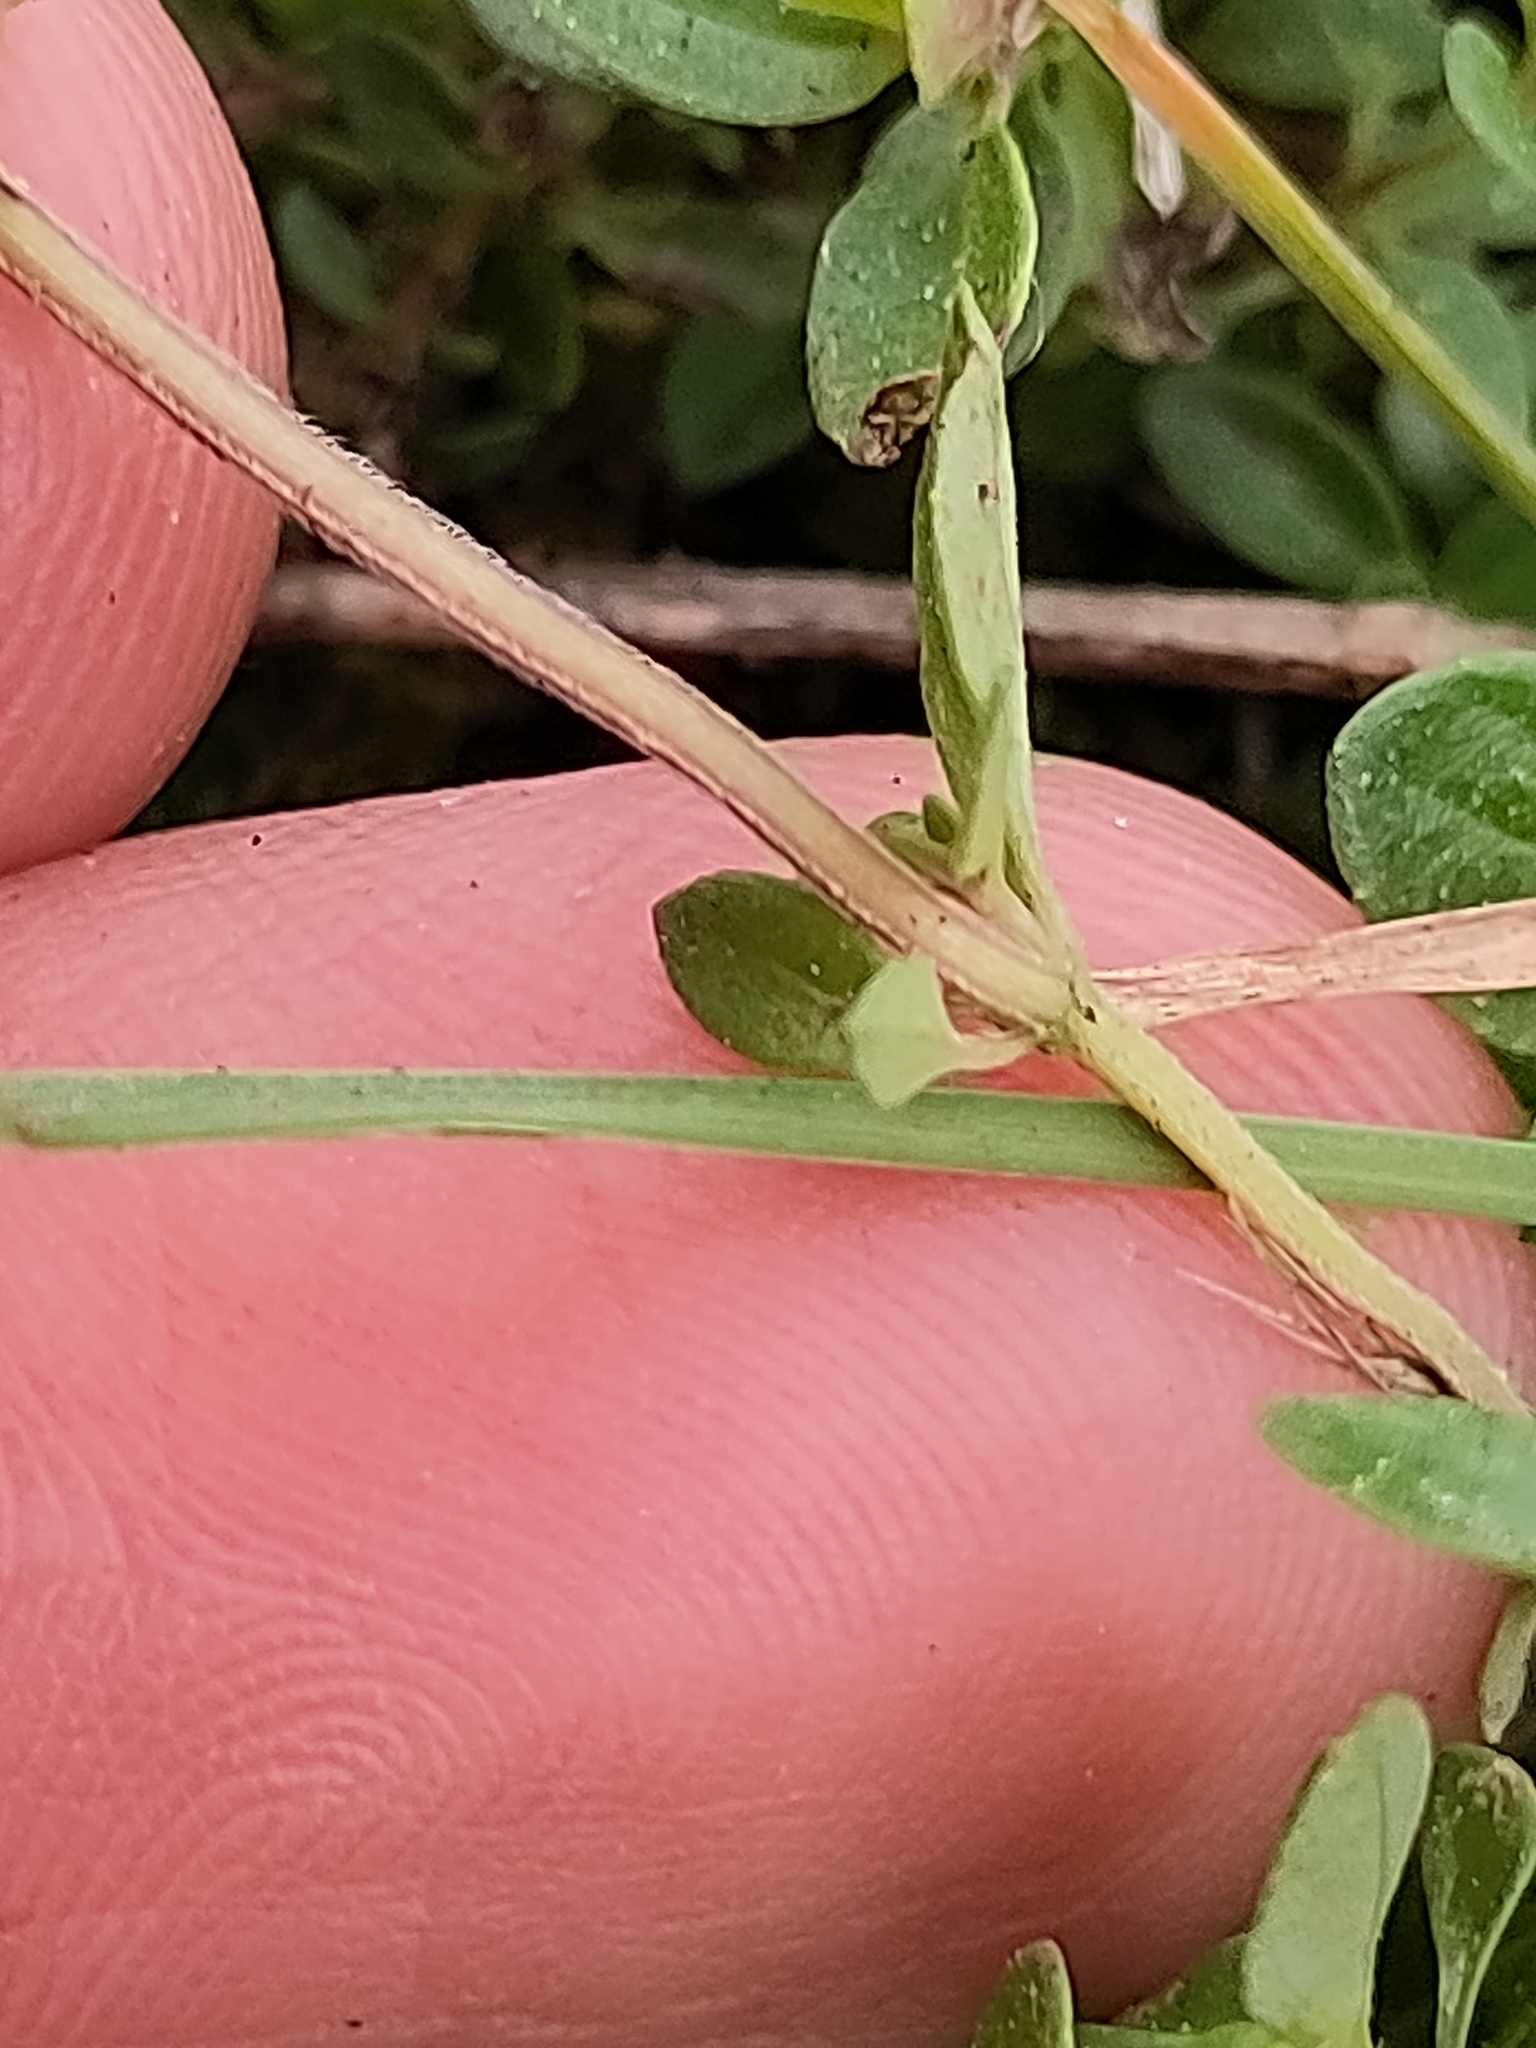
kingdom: Plantae
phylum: Tracheophyta
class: Magnoliopsida
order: Lamiales
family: Lamiaceae
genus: Thymus
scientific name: Thymus pulegioides
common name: Large thyme
